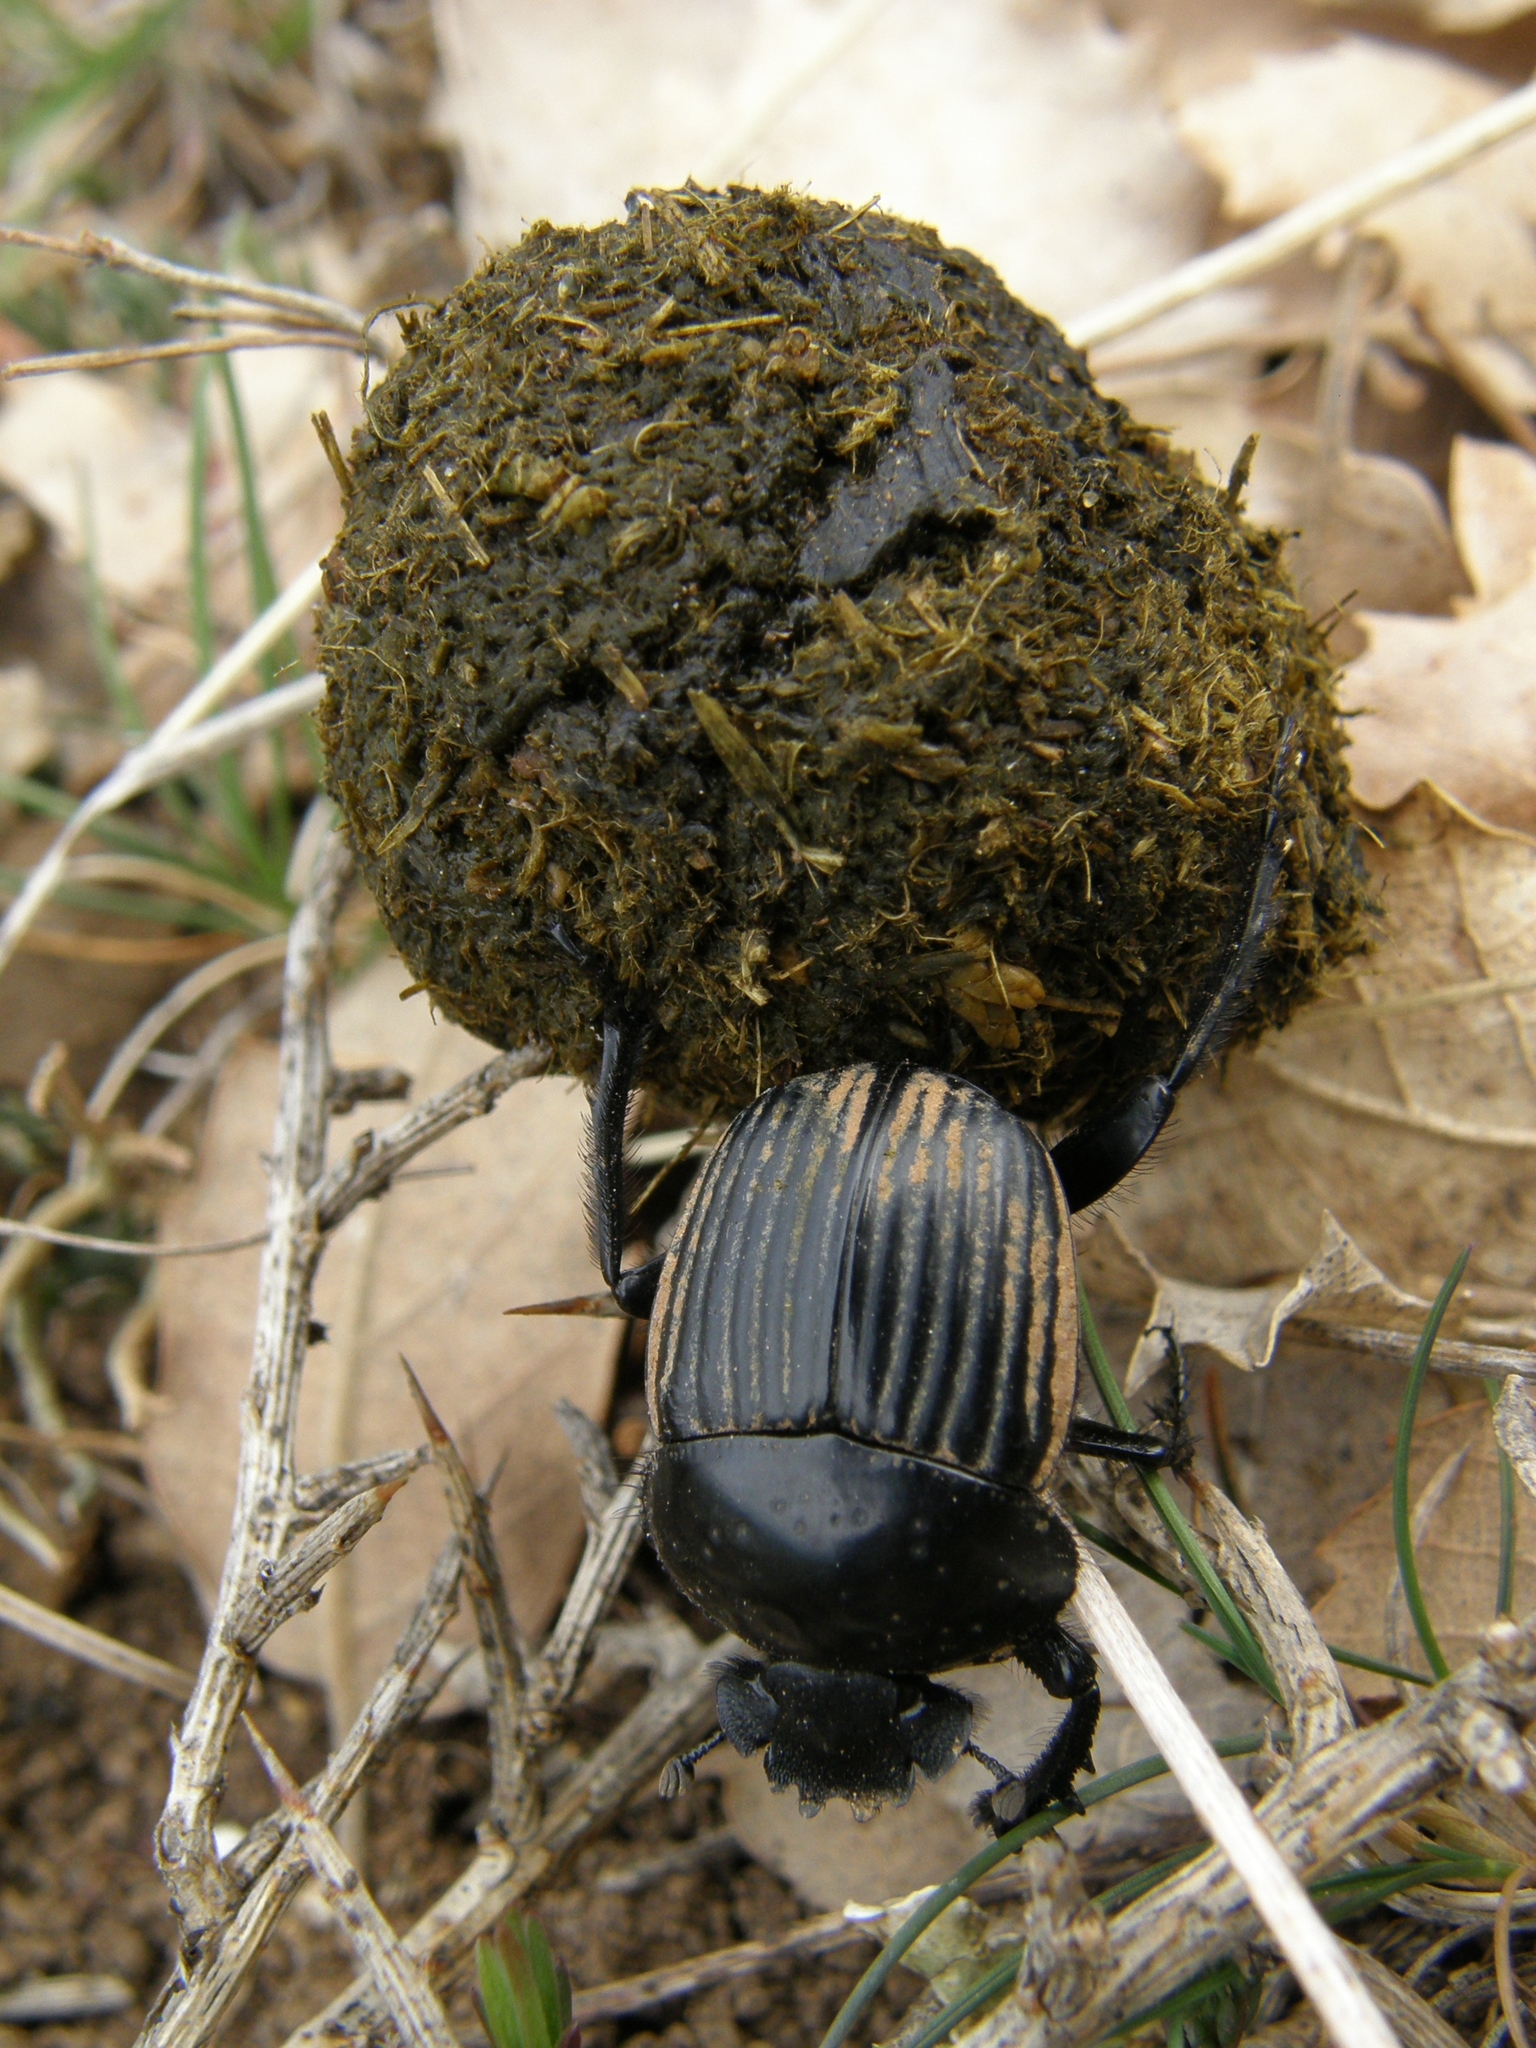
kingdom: Animalia
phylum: Arthropoda
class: Insecta
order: Coleoptera
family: Scarabaeidae
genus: Ateuchetus
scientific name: Ateuchetus laticollis
